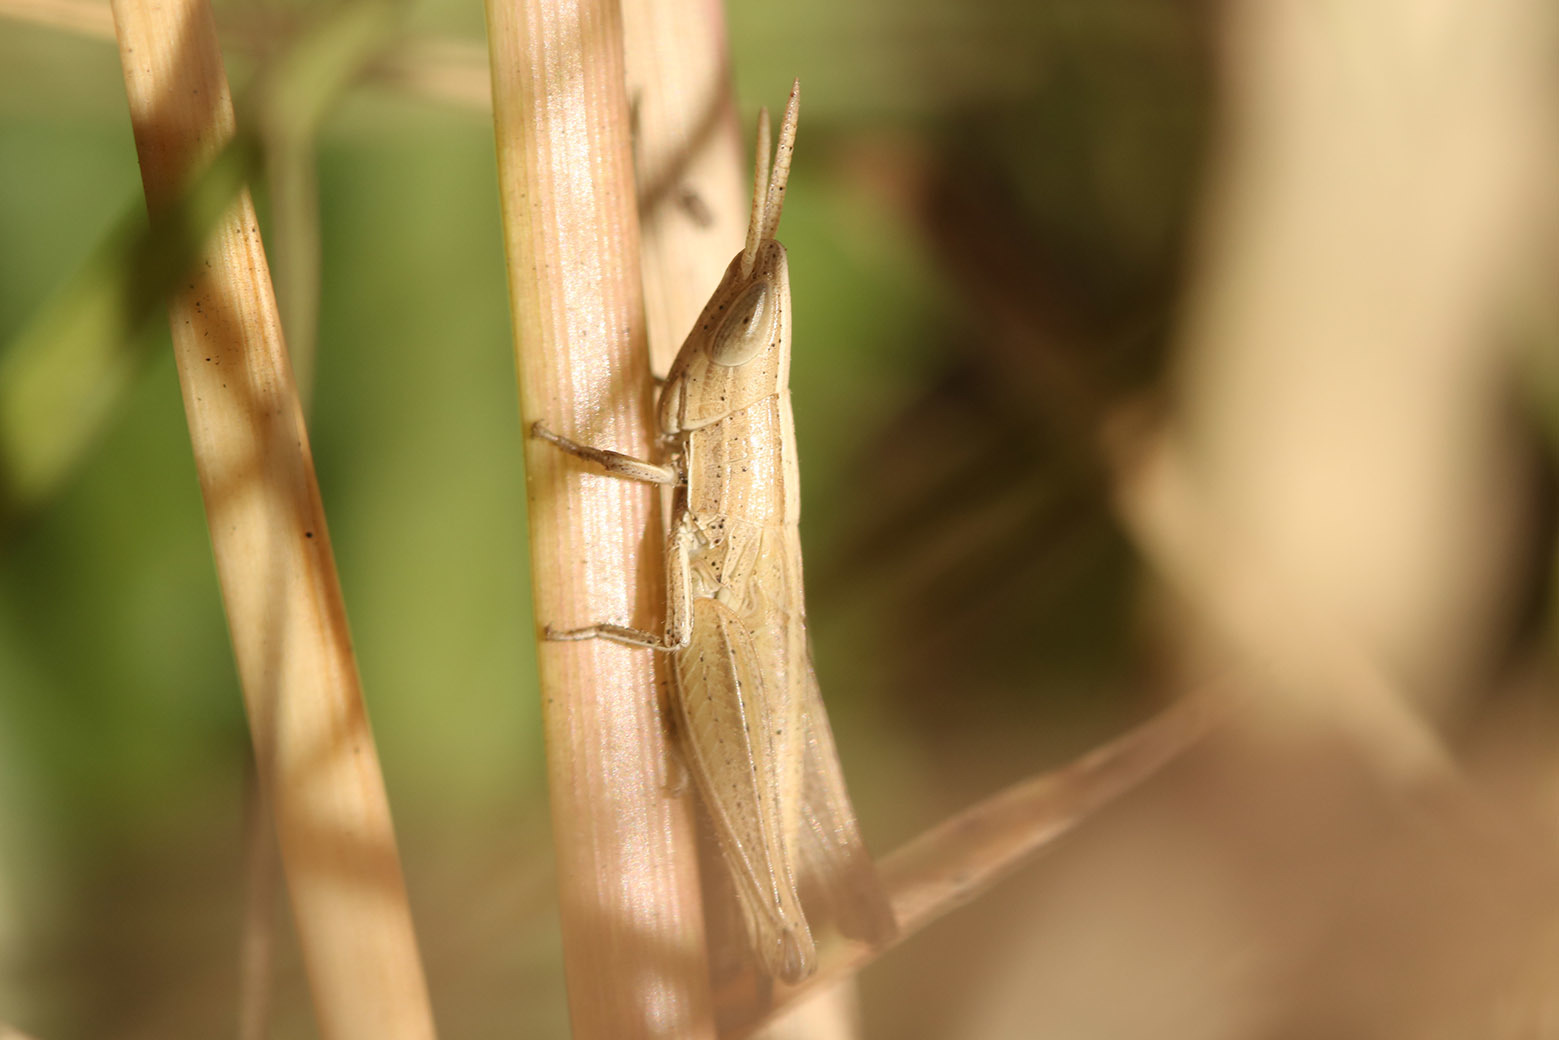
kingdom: Animalia
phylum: Arthropoda
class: Insecta
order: Orthoptera
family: Acrididae
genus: Laplatacris
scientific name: Laplatacris dispar
